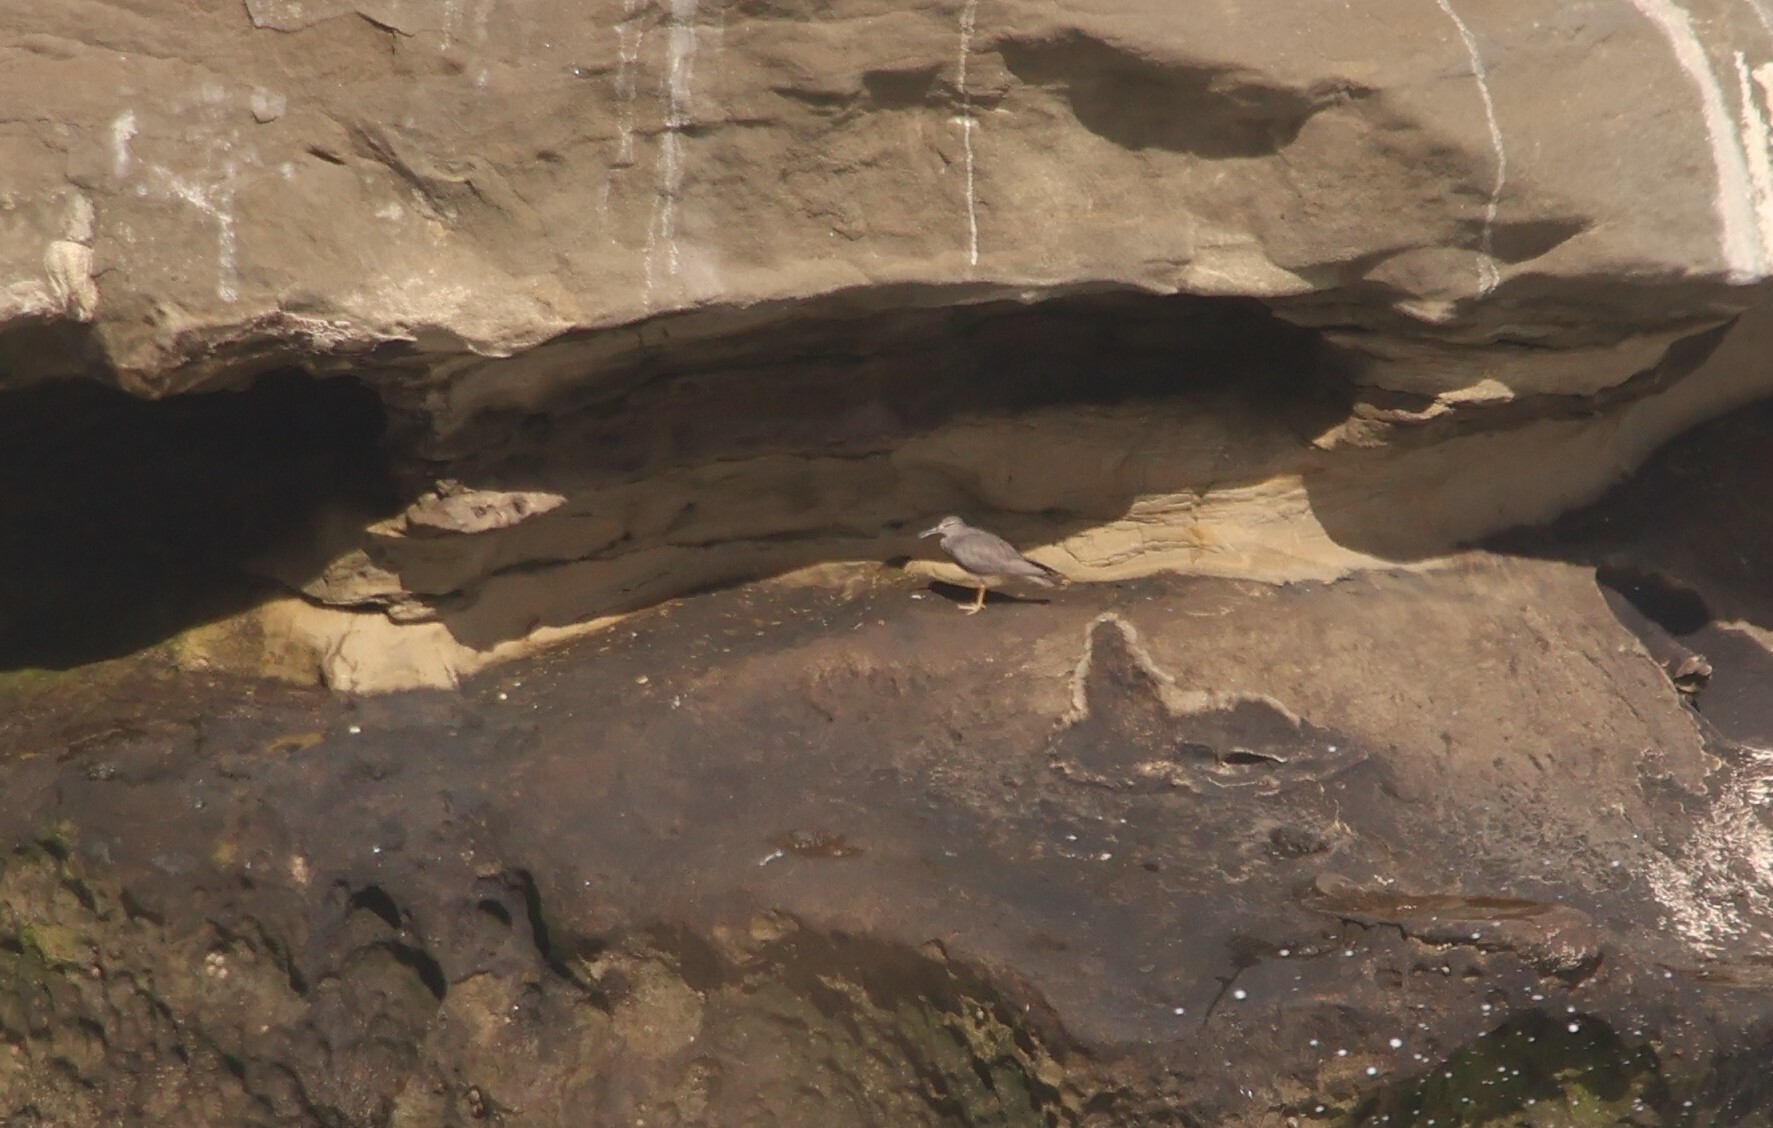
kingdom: Animalia
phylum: Chordata
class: Aves
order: Charadriiformes
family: Scolopacidae
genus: Tringa
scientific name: Tringa incana
